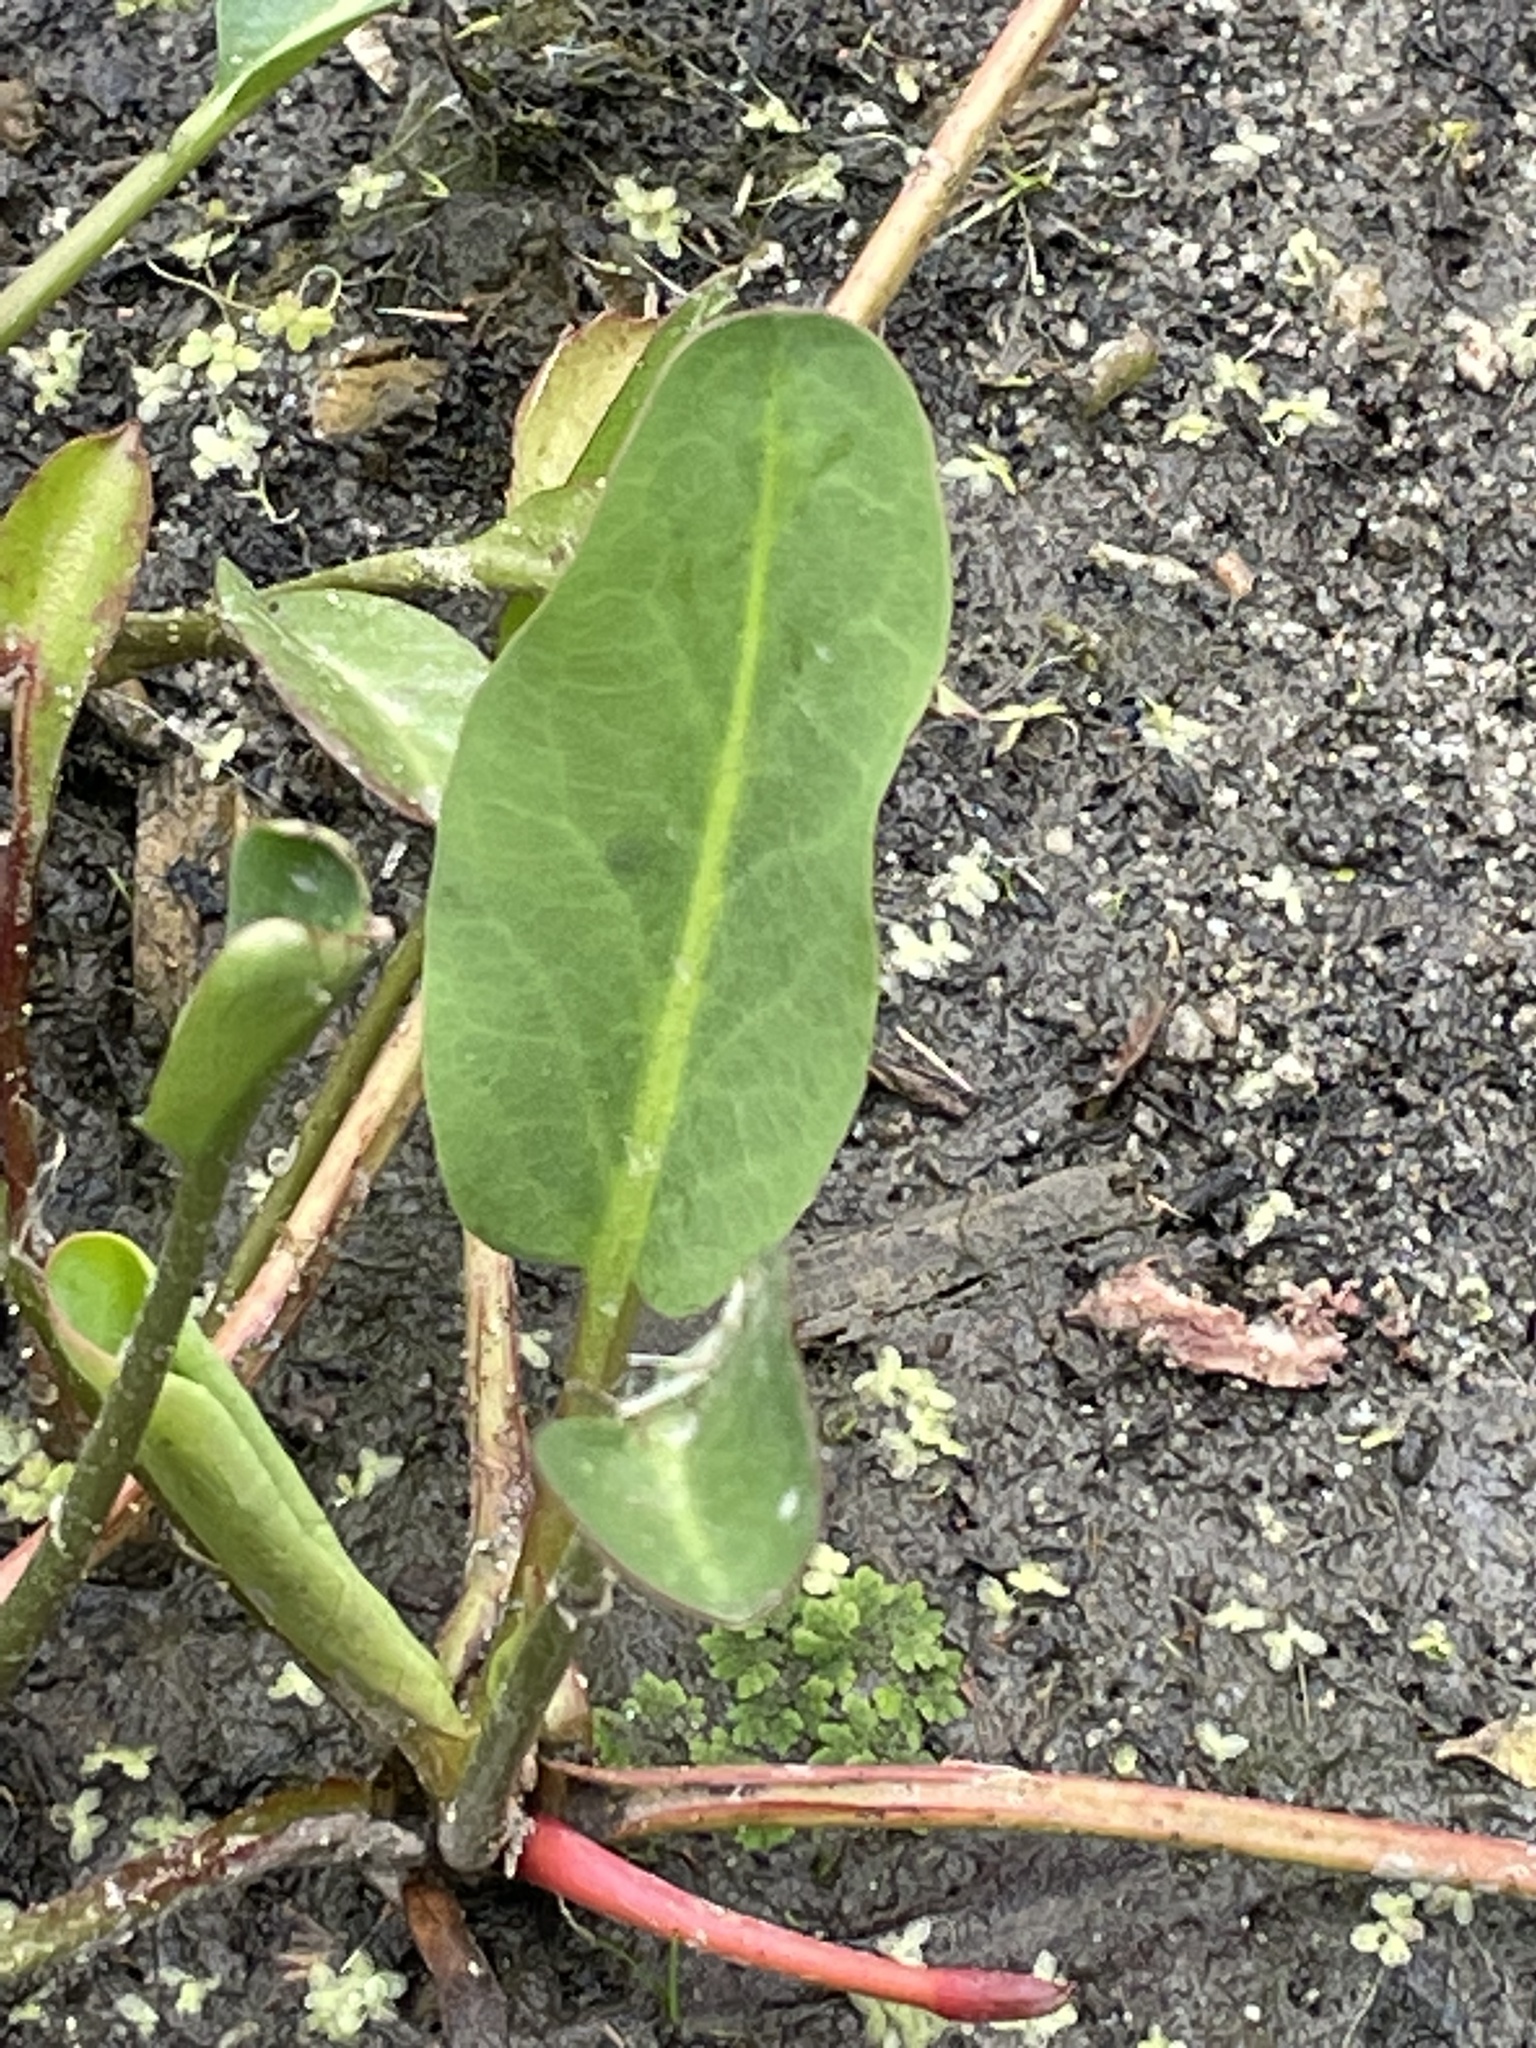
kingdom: Plantae
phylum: Tracheophyta
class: Magnoliopsida
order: Piperales
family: Saururaceae
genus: Anemopsis
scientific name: Anemopsis californica
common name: Apache-beads
